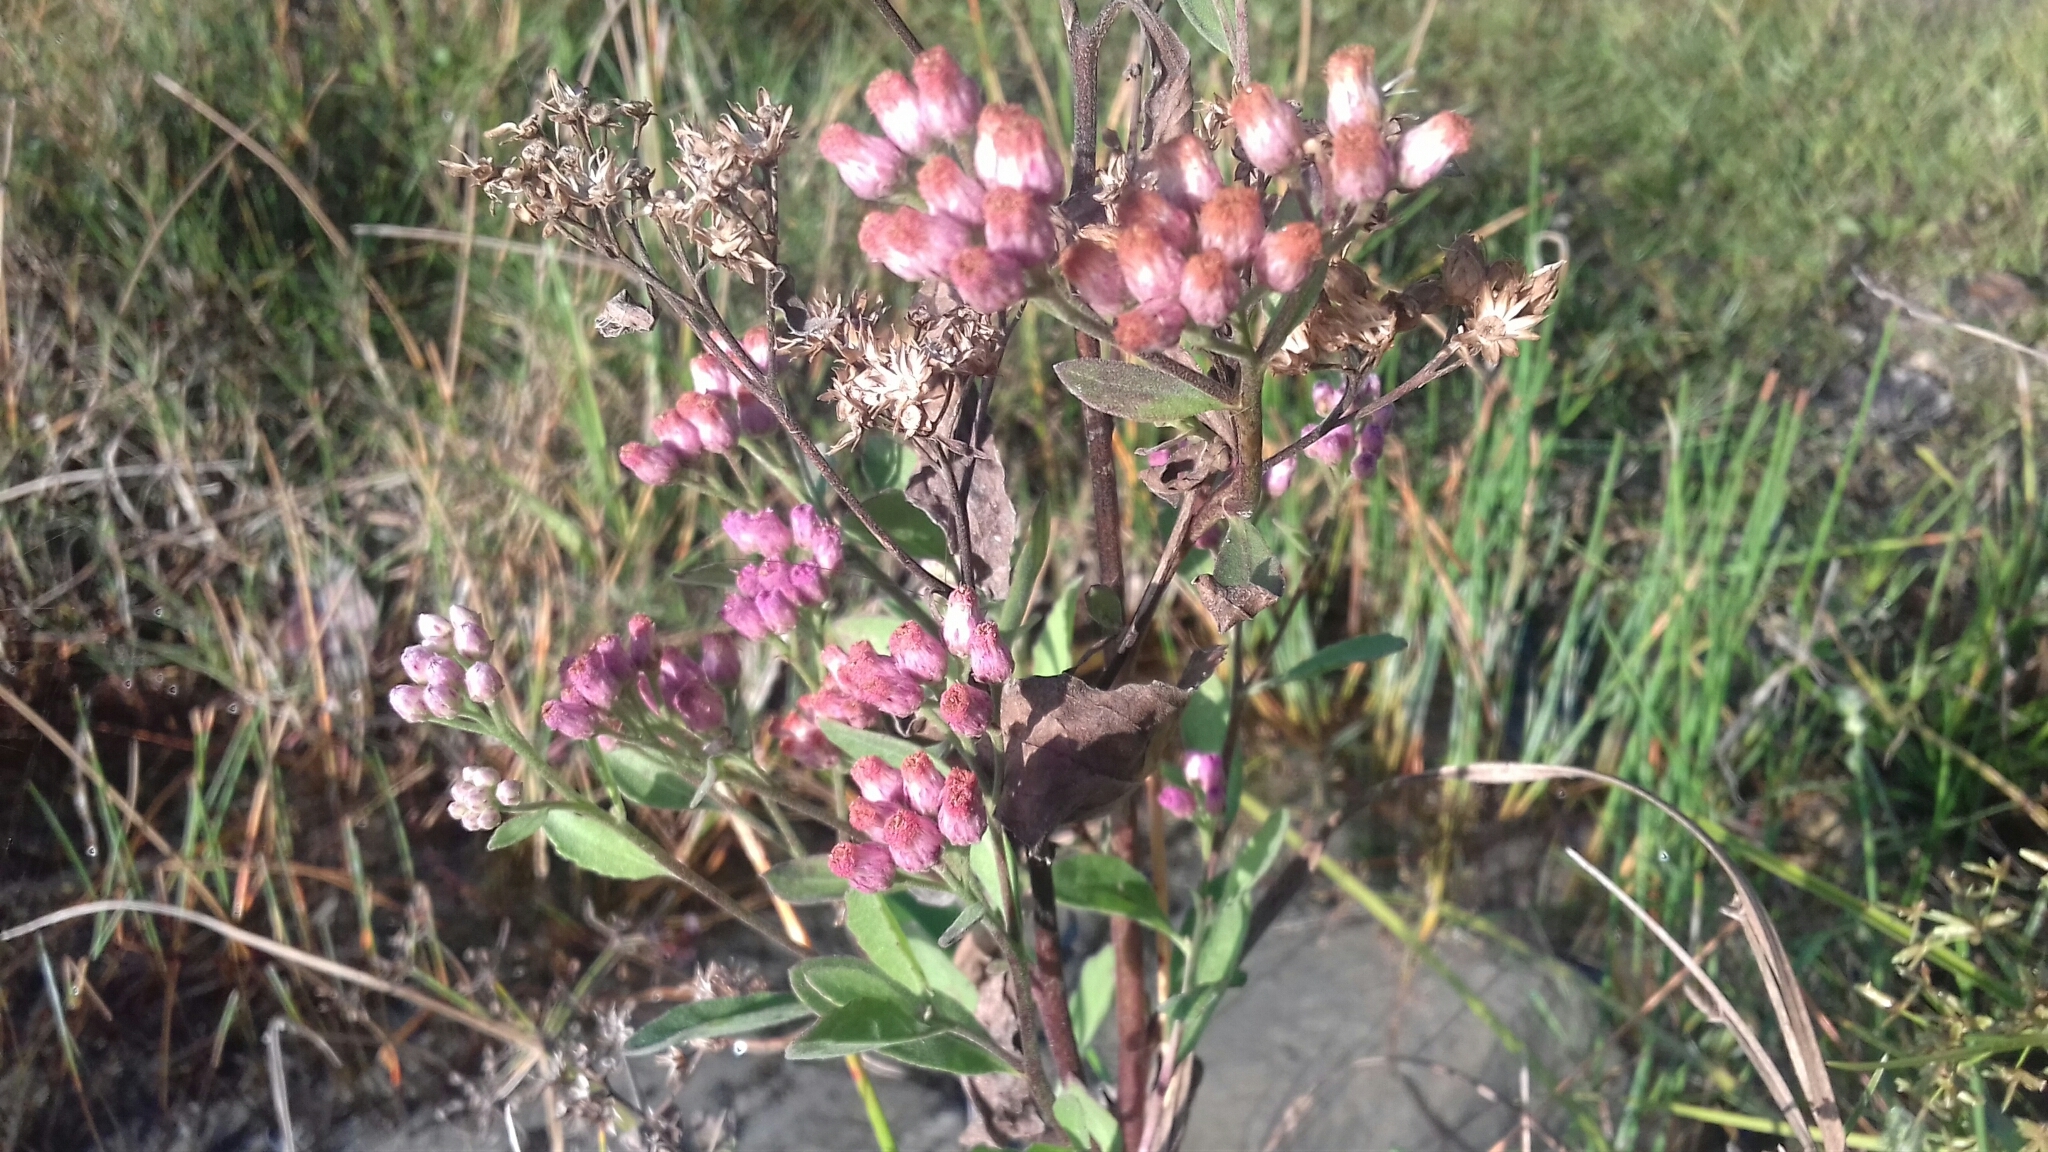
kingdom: Plantae
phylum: Tracheophyta
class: Magnoliopsida
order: Asterales
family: Asteraceae
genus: Pluchea
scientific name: Pluchea odorata
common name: Saltmarsh fleabane
